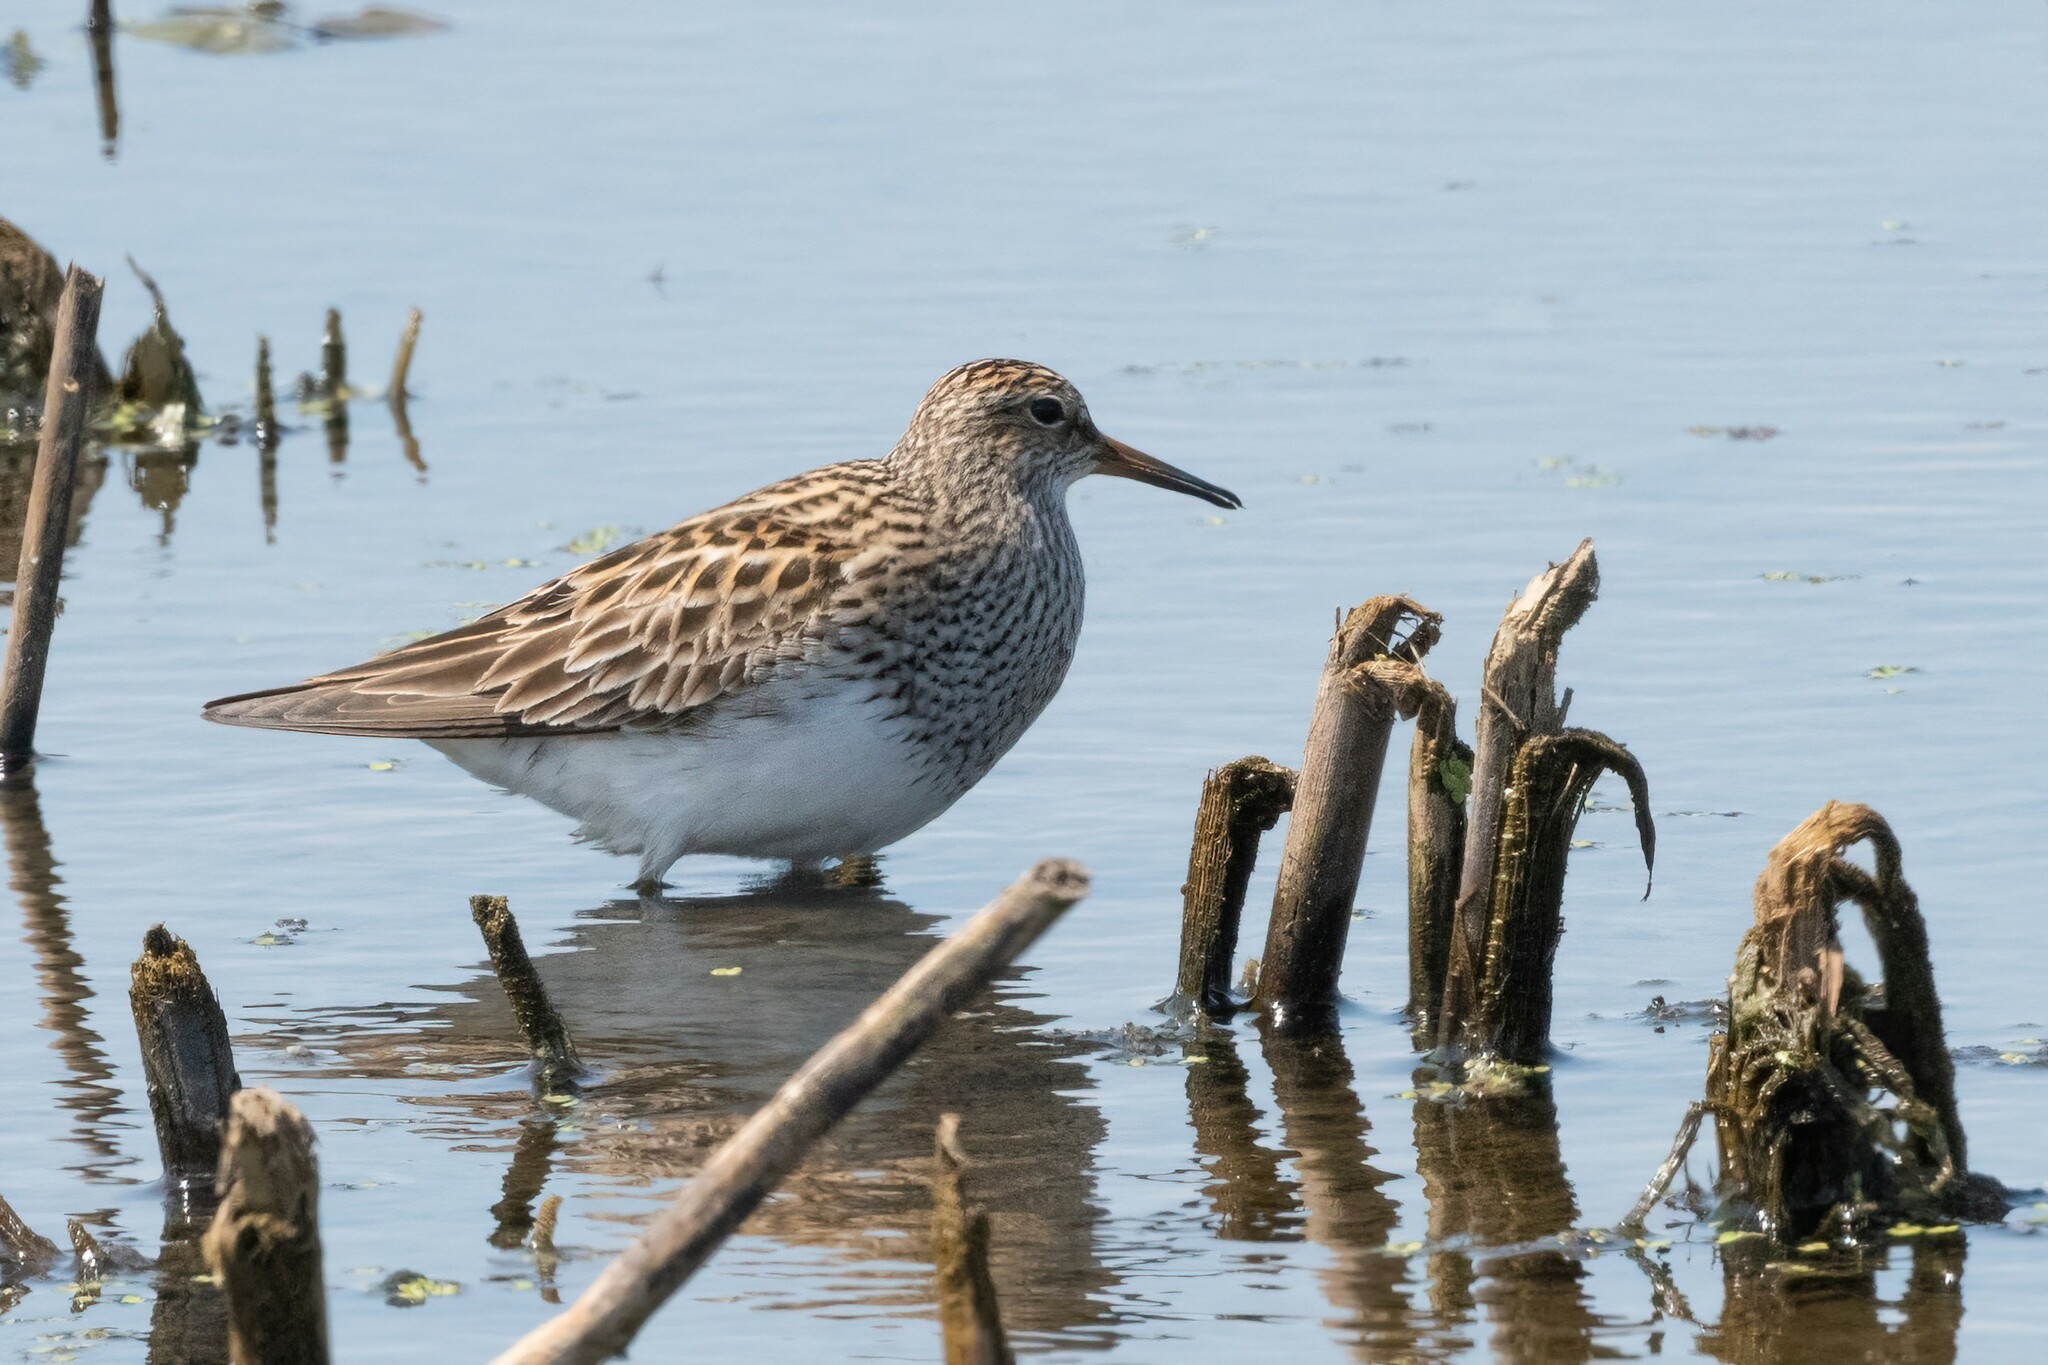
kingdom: Animalia
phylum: Chordata
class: Aves
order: Charadriiformes
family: Scolopacidae
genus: Calidris
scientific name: Calidris melanotos
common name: Pectoral sandpiper
